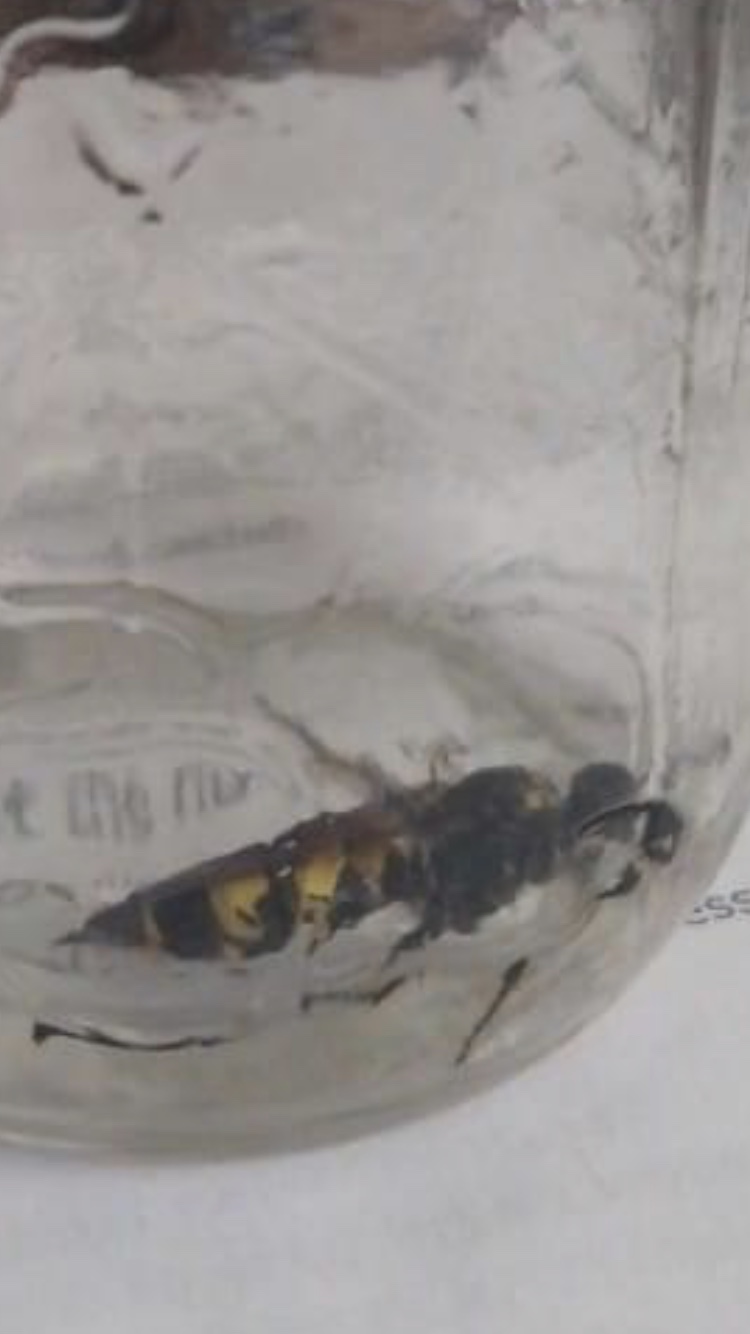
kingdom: Animalia
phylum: Arthropoda
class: Insecta
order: Hymenoptera
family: Scoliidae
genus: Dielis
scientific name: Dielis
